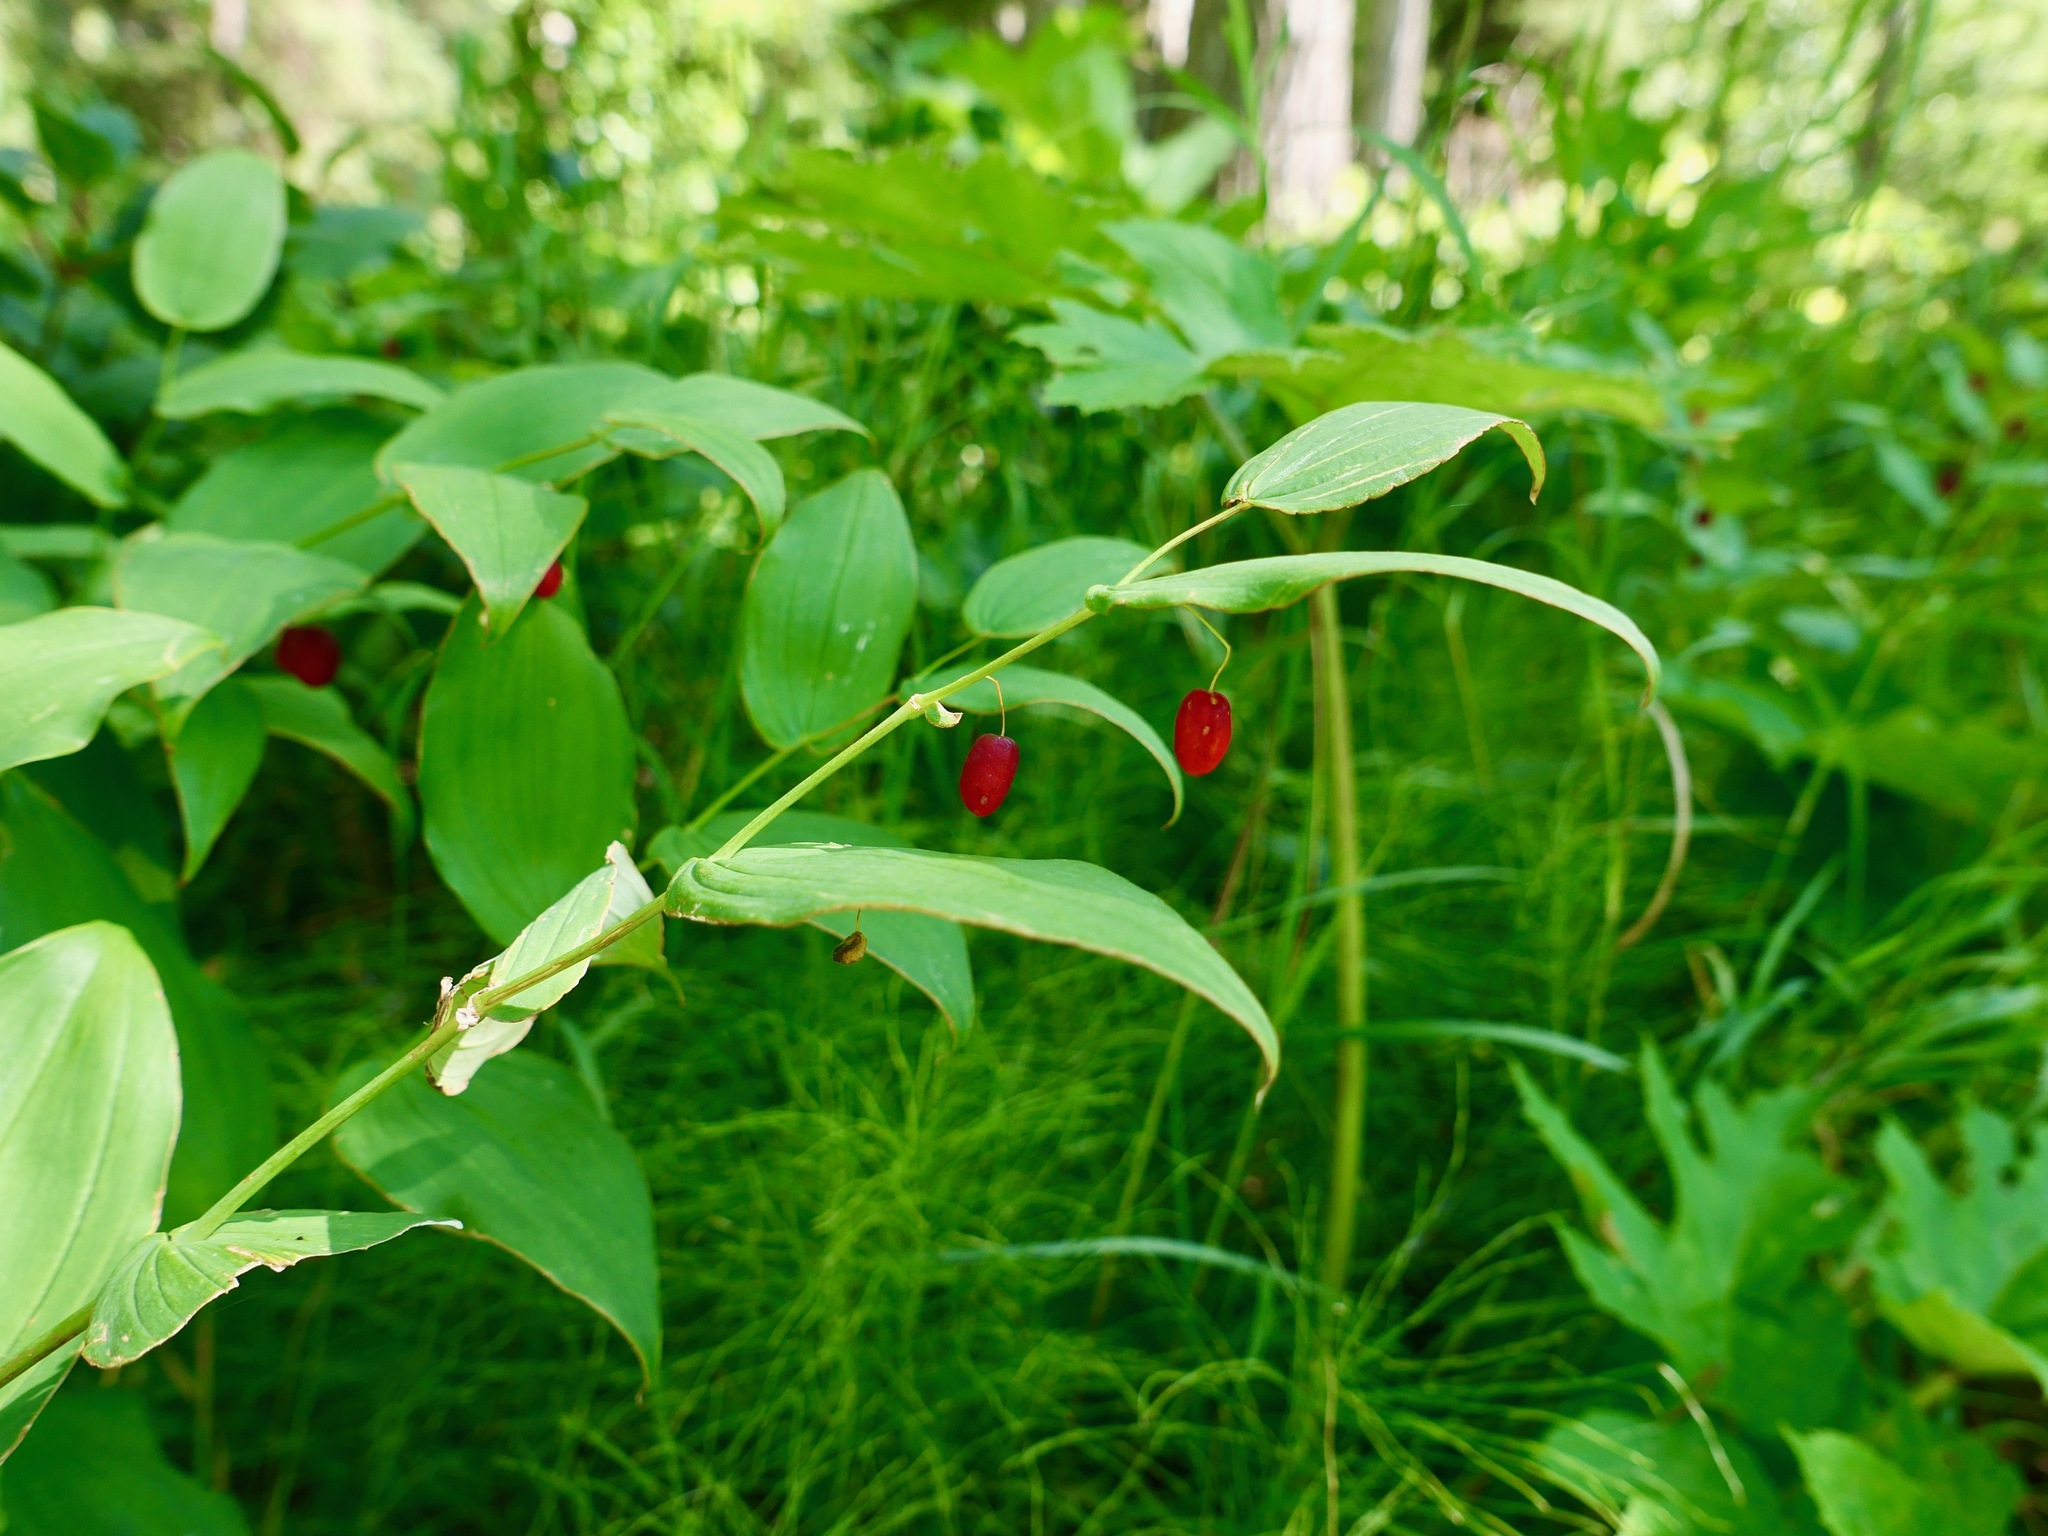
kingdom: Plantae
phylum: Tracheophyta
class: Liliopsida
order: Liliales
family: Liliaceae
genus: Streptopus
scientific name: Streptopus amplexifolius
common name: Clasp twisted stalk
